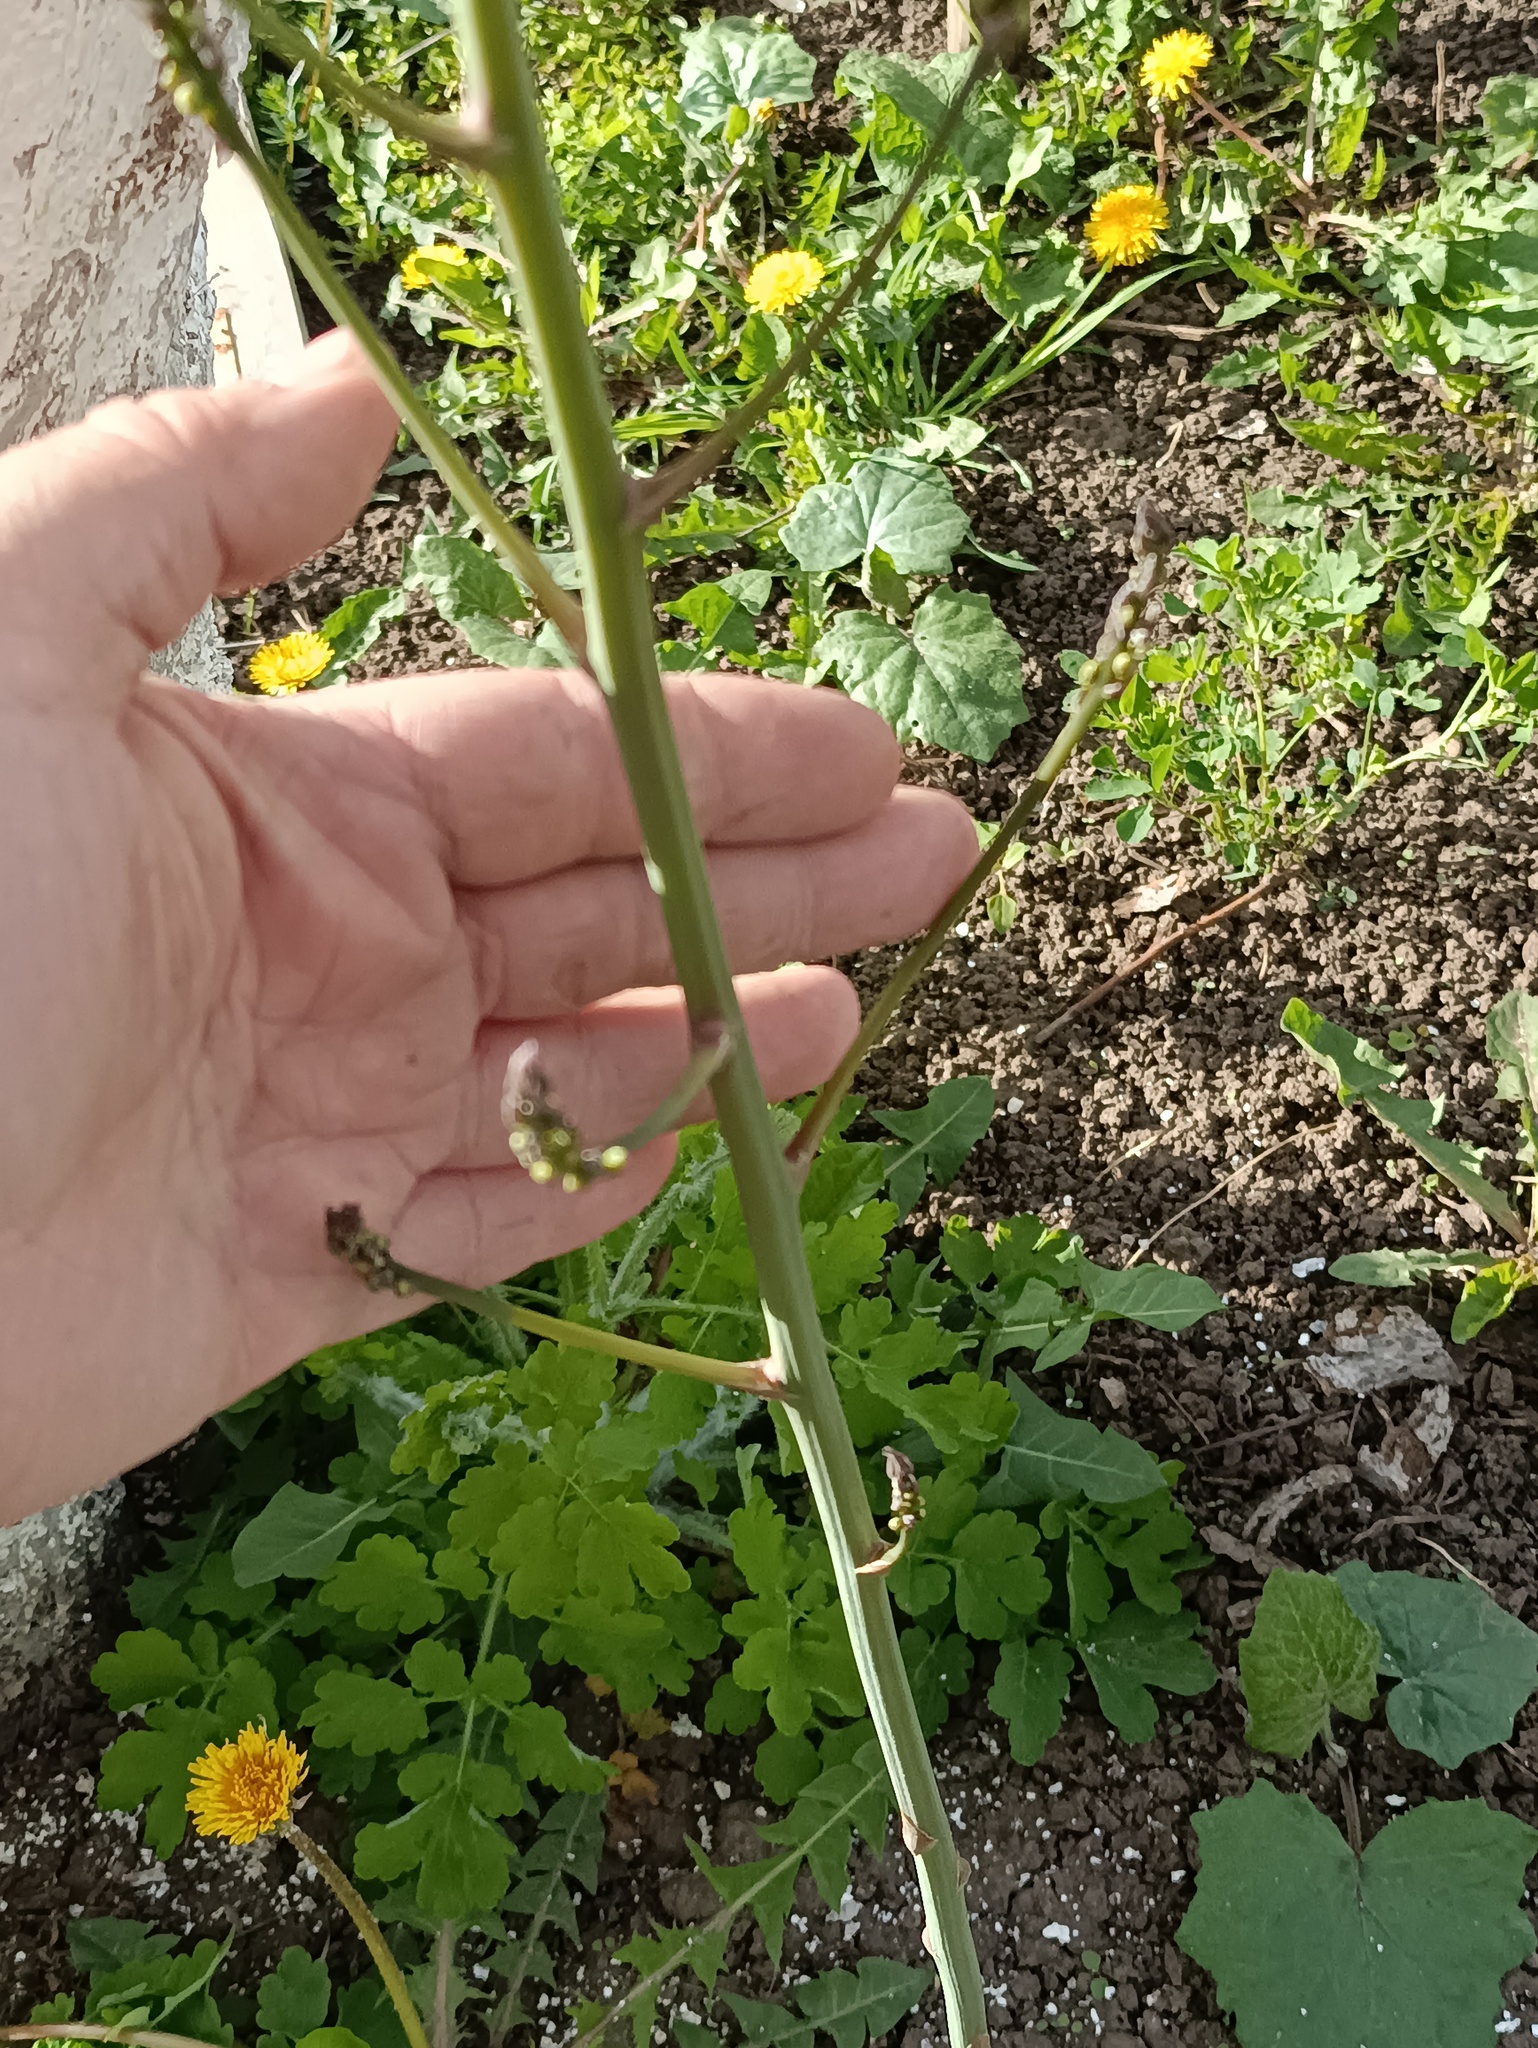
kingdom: Plantae
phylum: Tracheophyta
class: Liliopsida
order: Asparagales
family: Asparagaceae
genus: Asparagus
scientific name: Asparagus officinalis
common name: Garden asparagus
